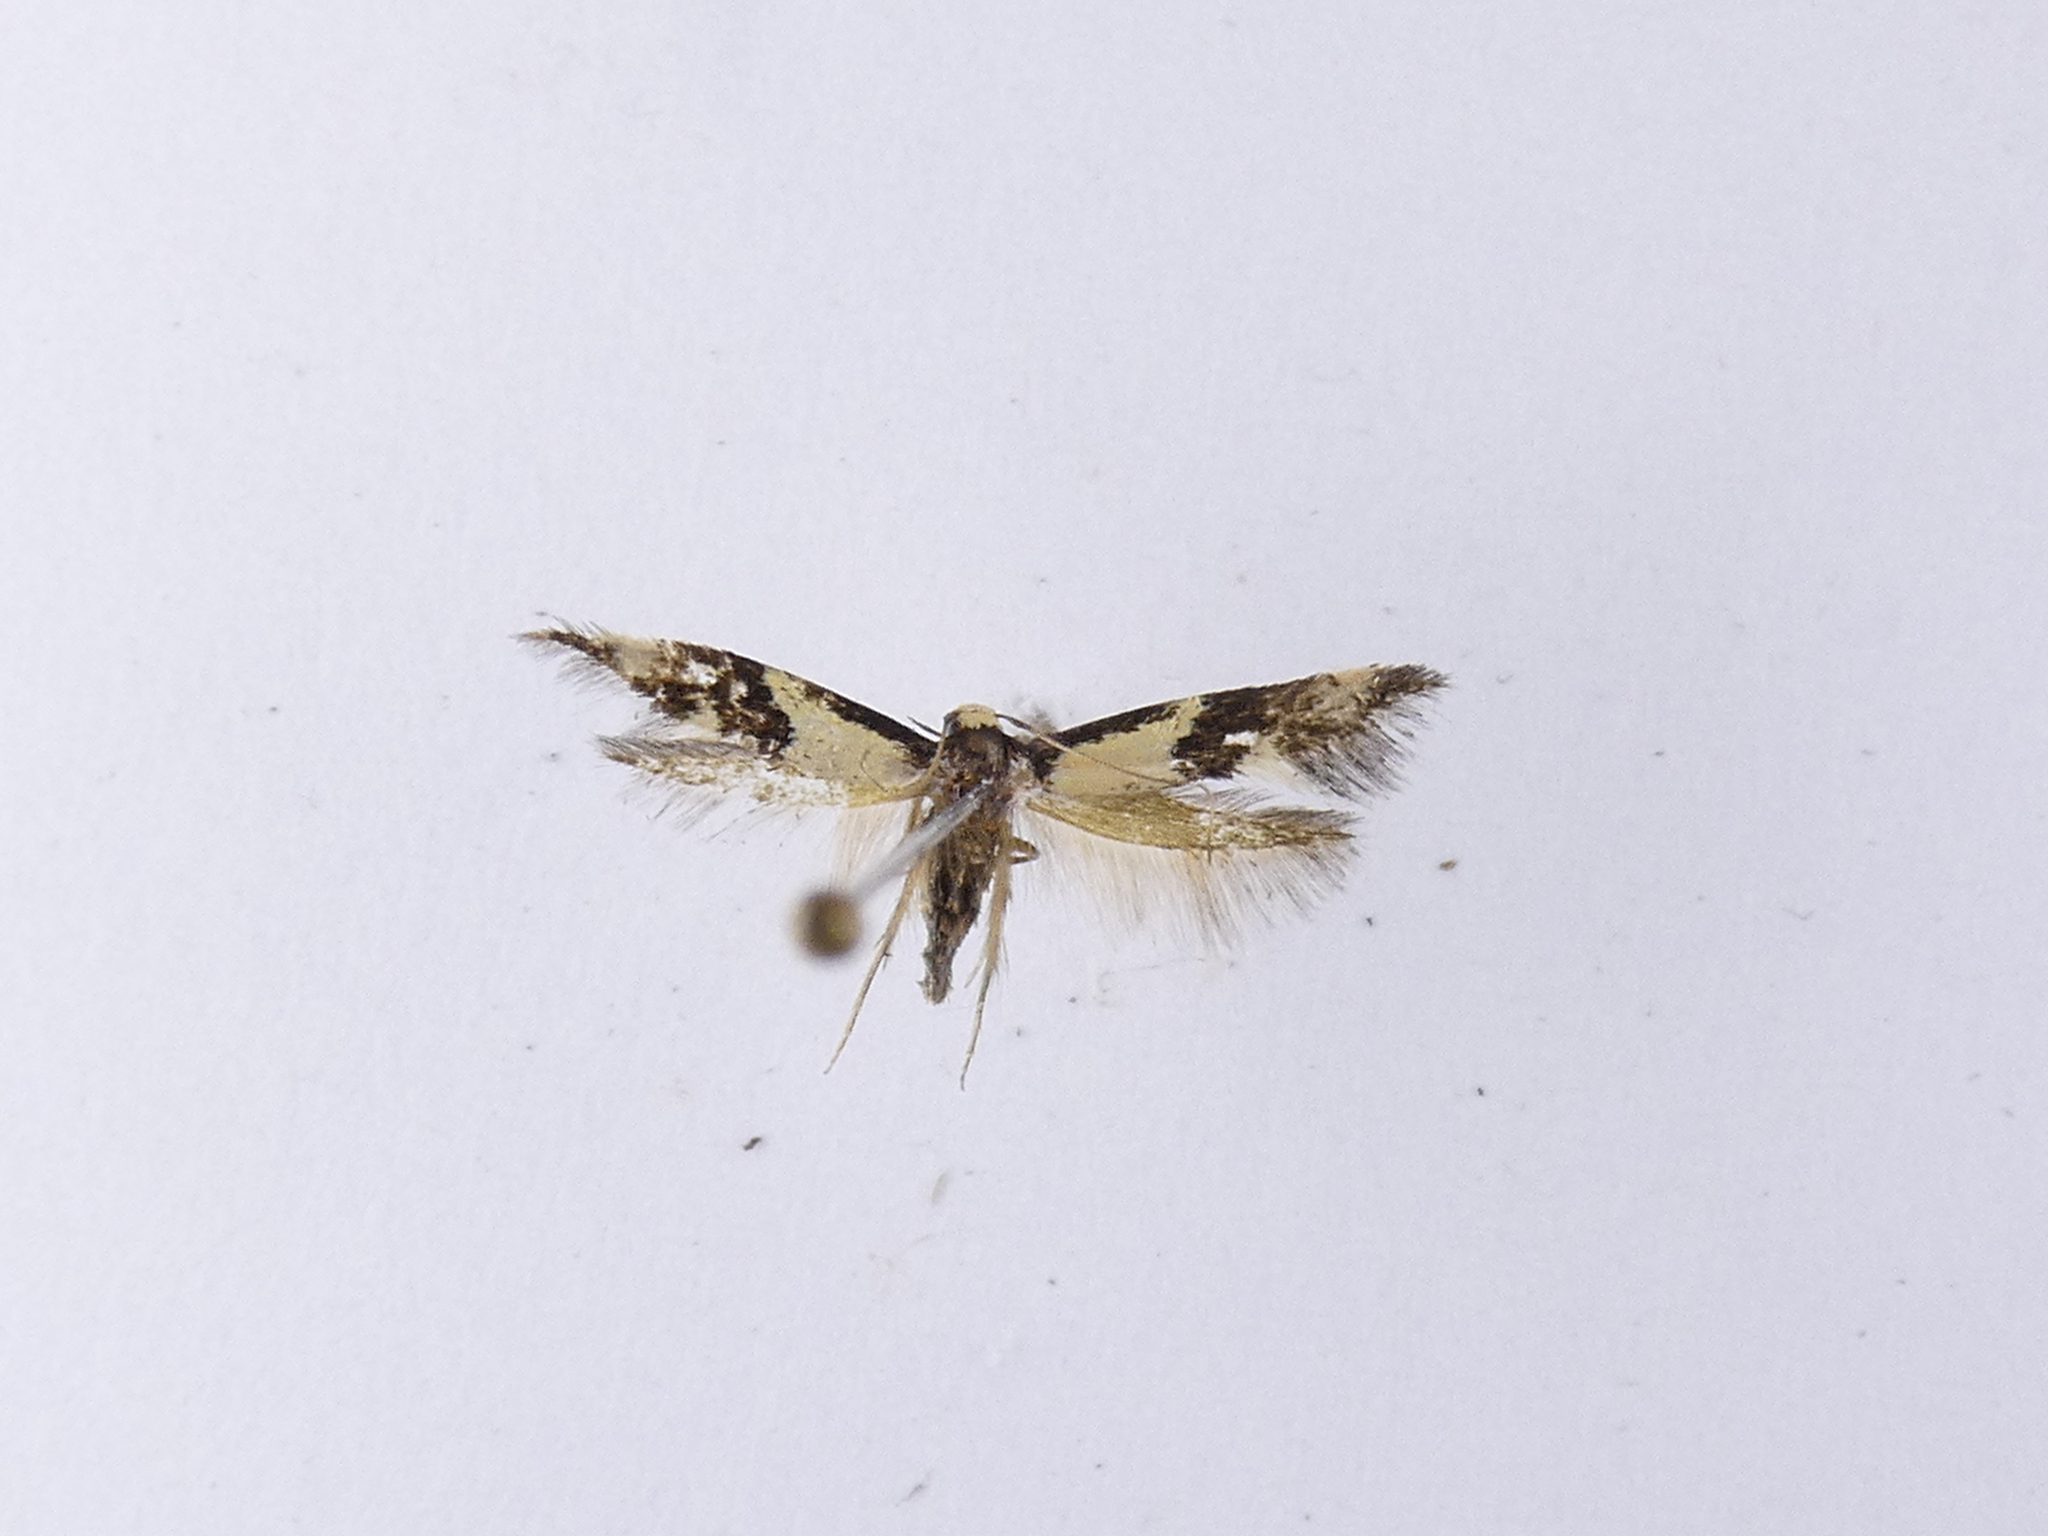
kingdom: Animalia
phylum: Arthropoda
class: Insecta
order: Lepidoptera
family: Tineidae
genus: Opogona
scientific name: Opogona comptella
